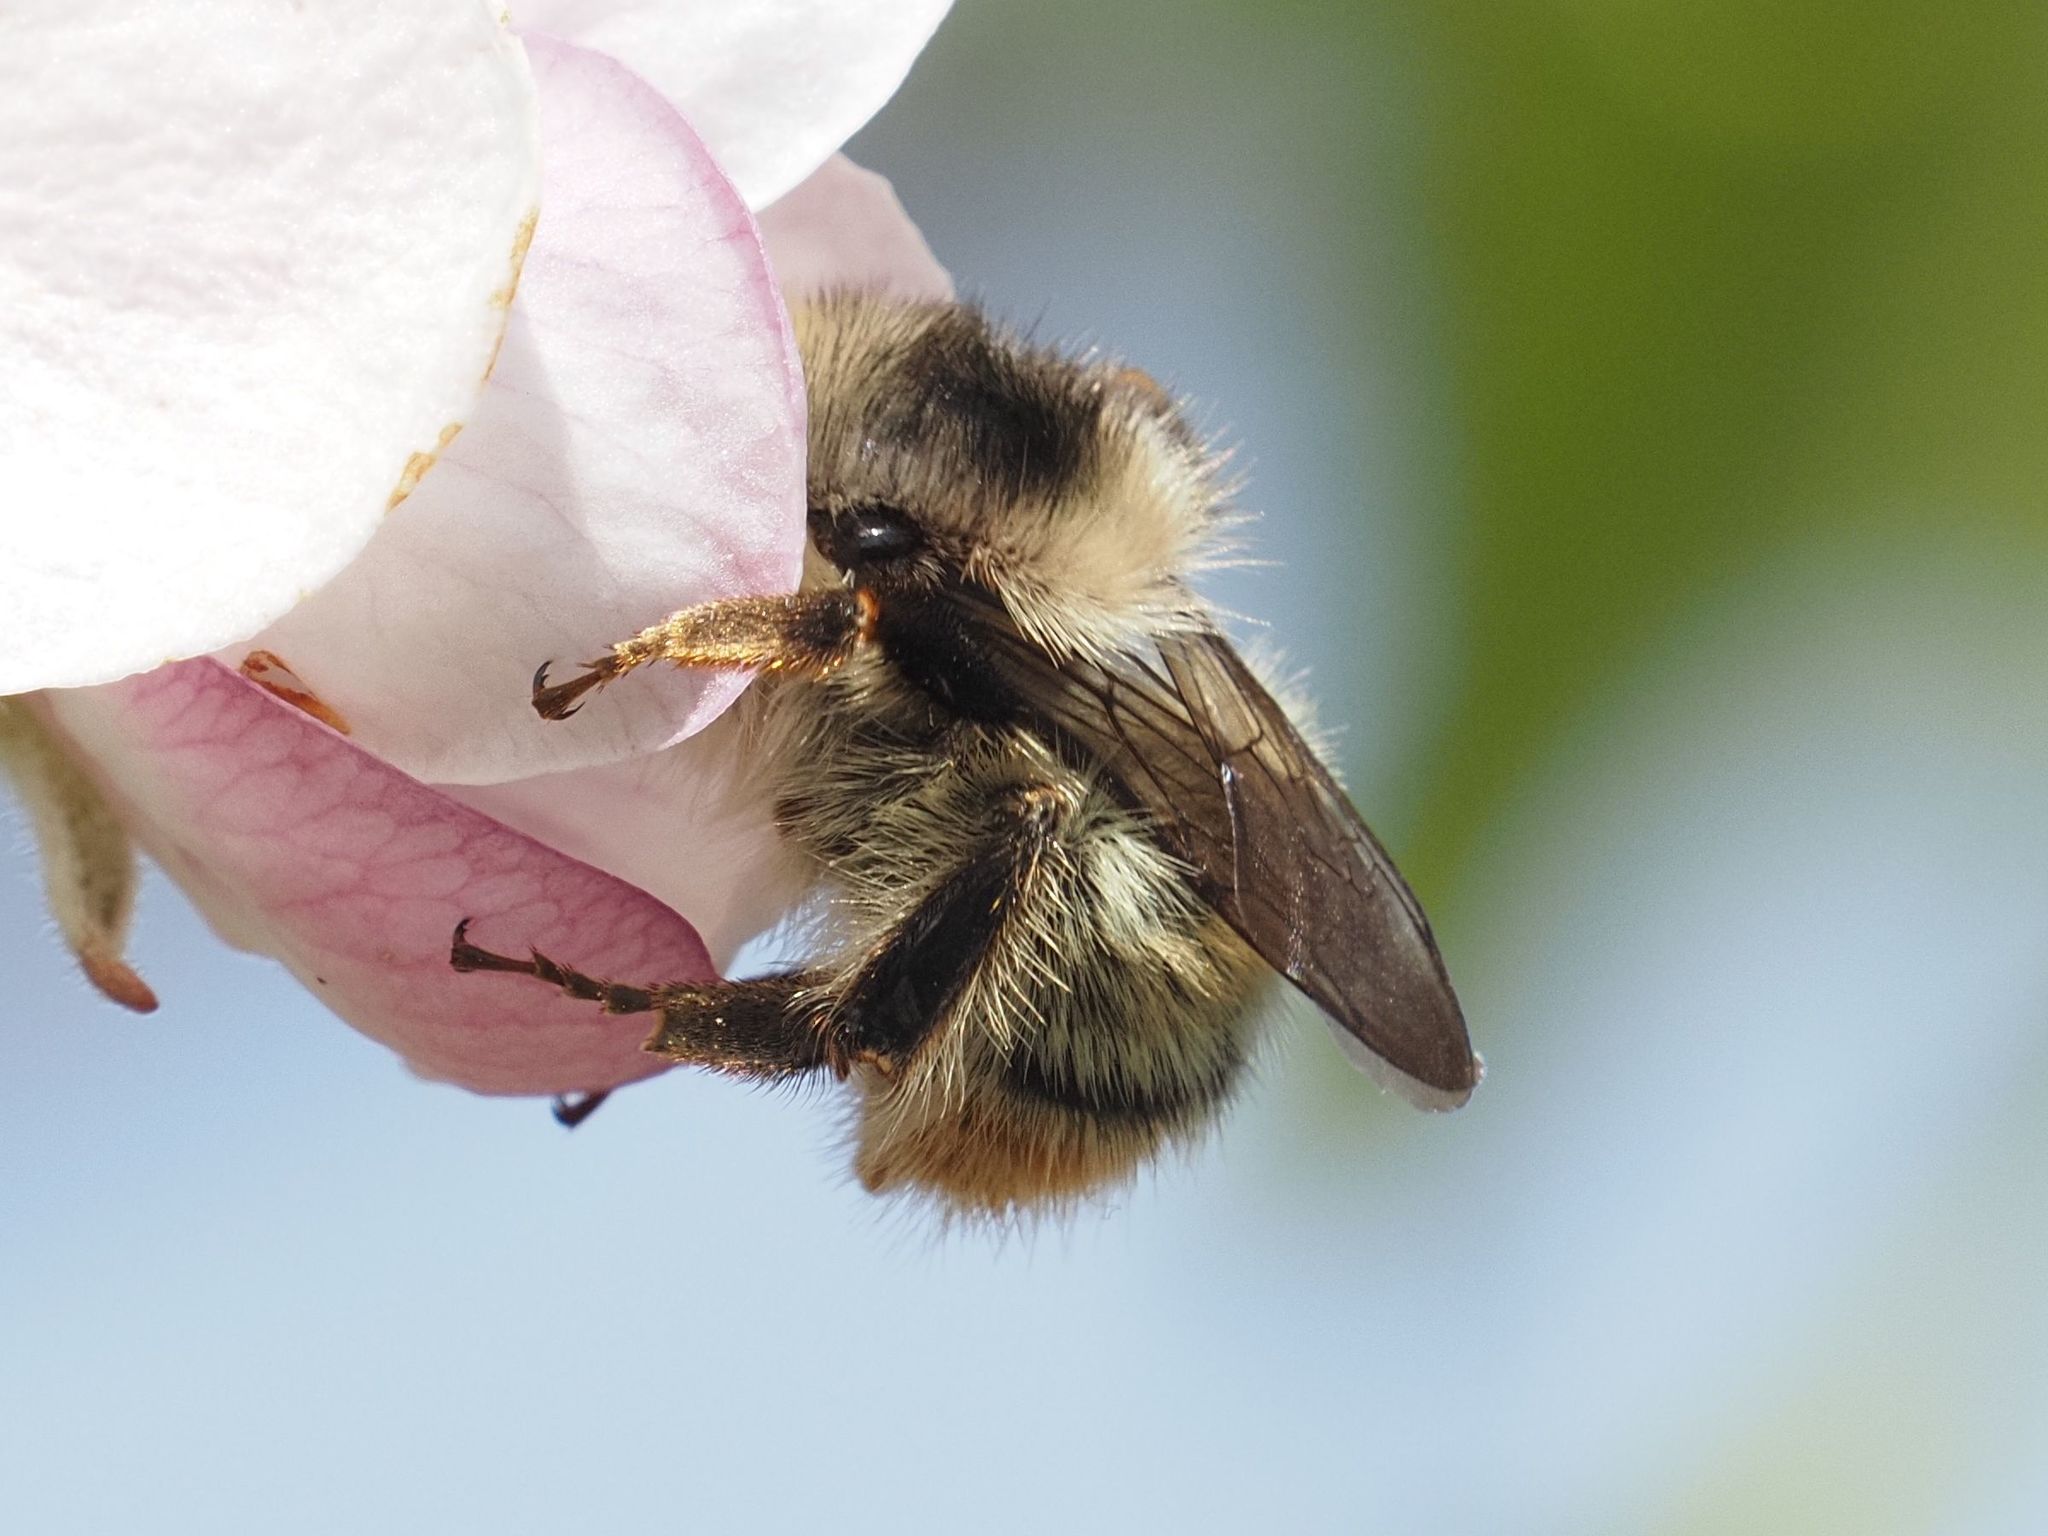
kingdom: Animalia
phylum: Arthropoda
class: Insecta
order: Hymenoptera
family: Apidae
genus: Bombus
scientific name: Bombus sylvarum
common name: Shrill carder bee
